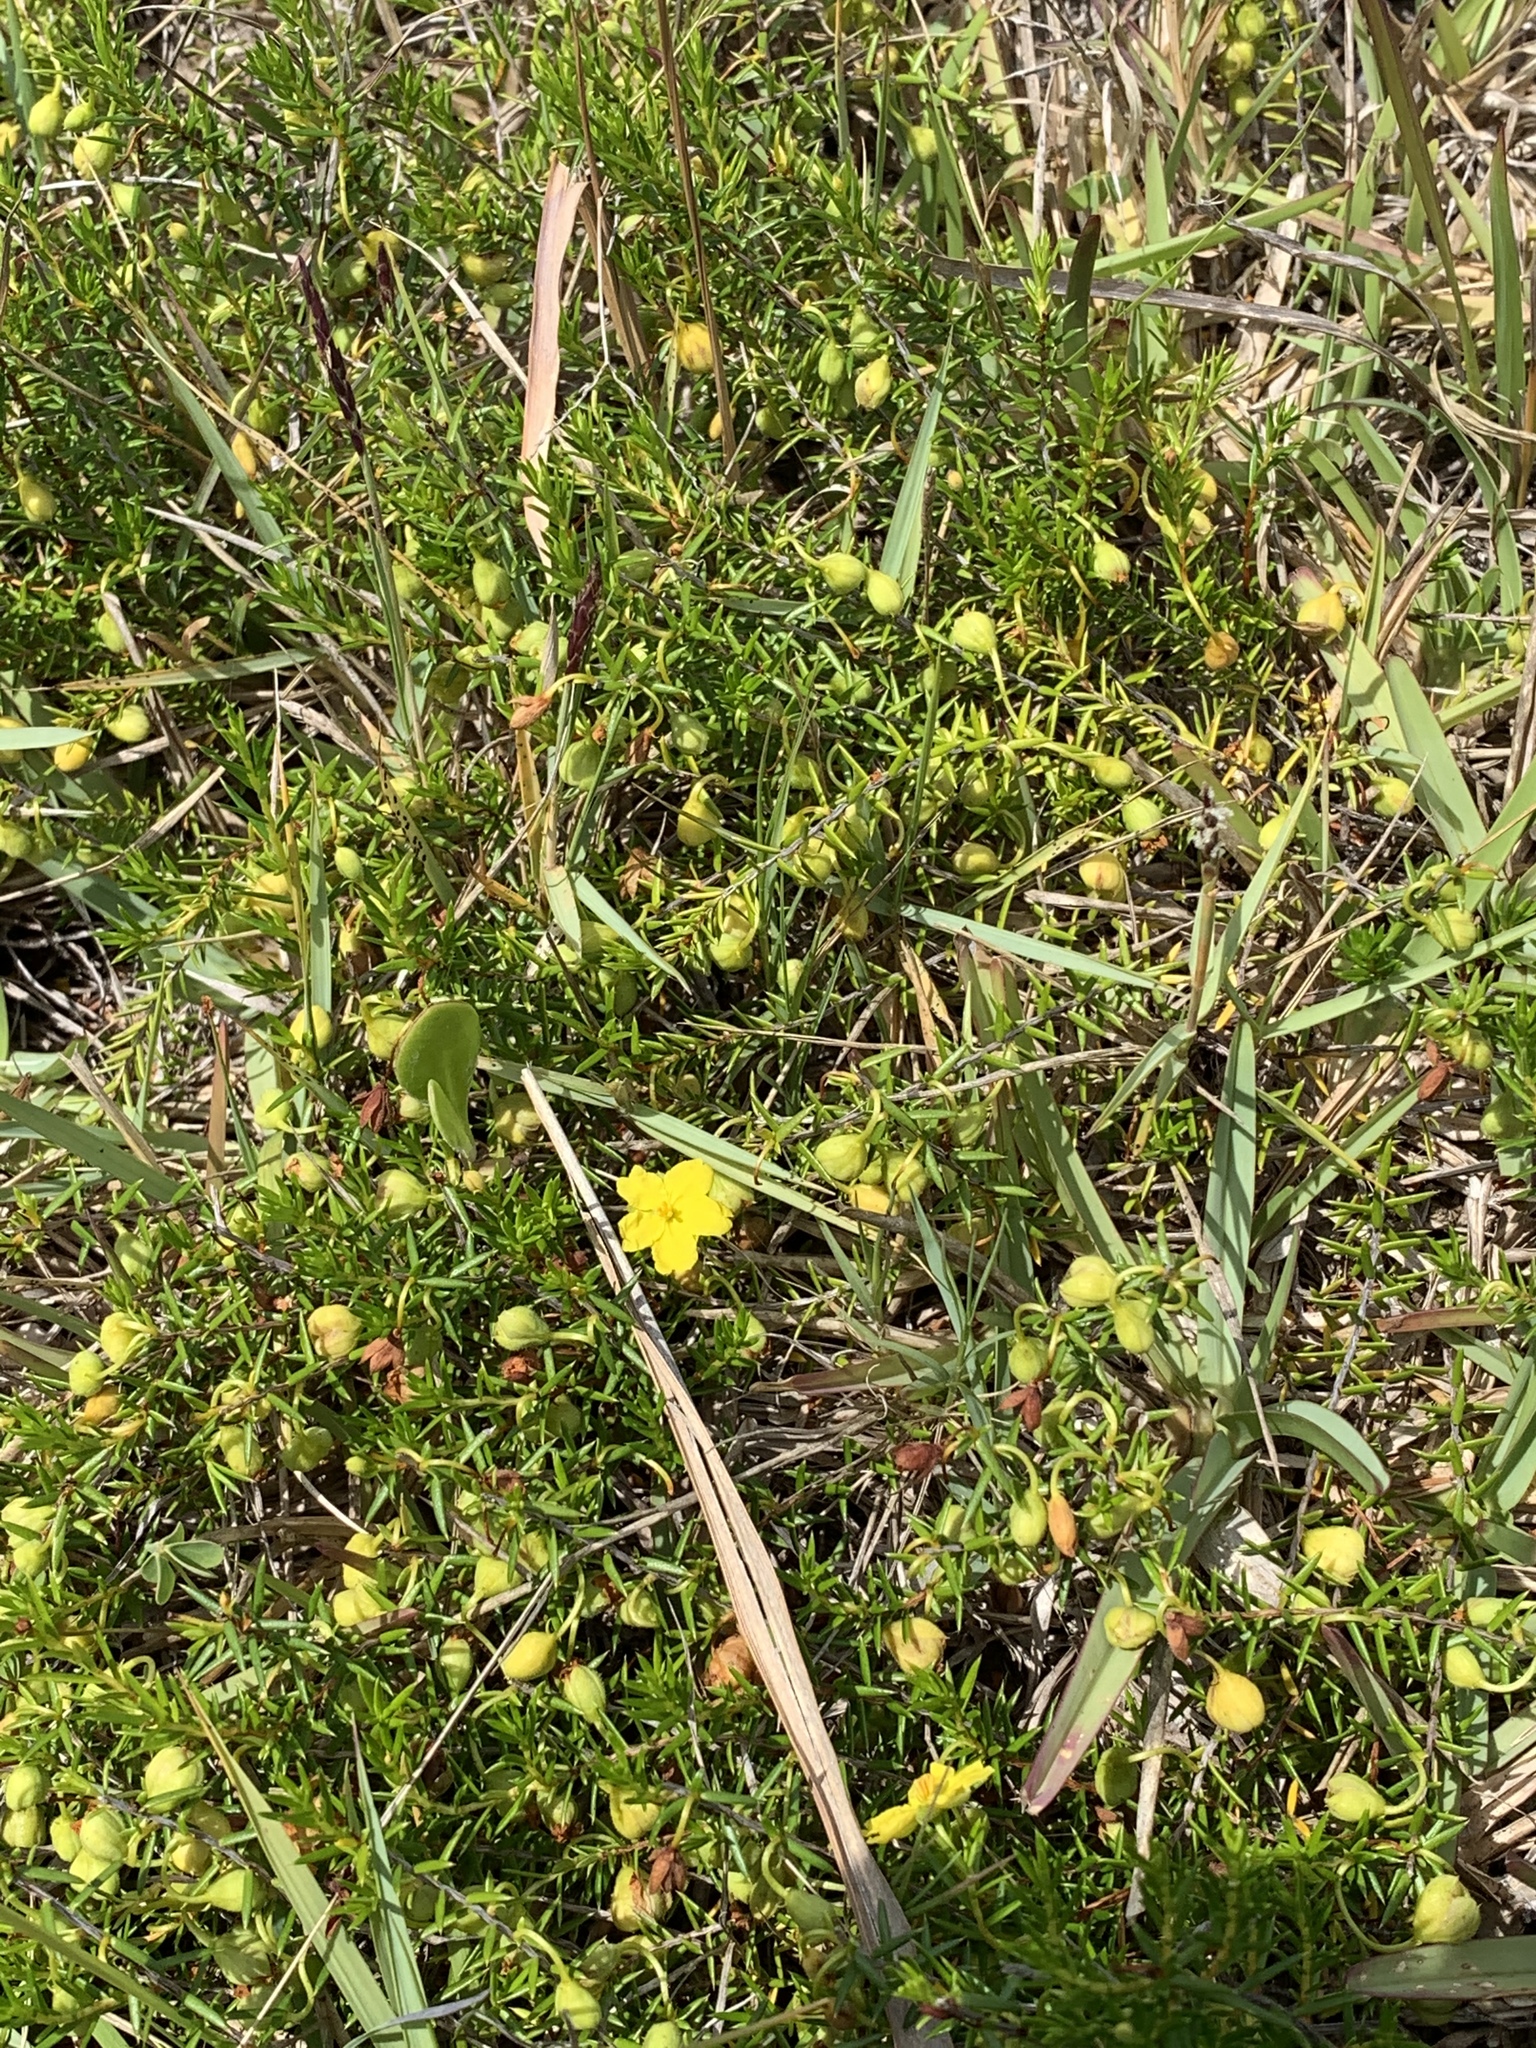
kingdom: Plantae
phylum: Tracheophyta
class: Magnoliopsida
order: Dilleniales
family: Dilleniaceae
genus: Hibbertia
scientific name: Hibbertia
